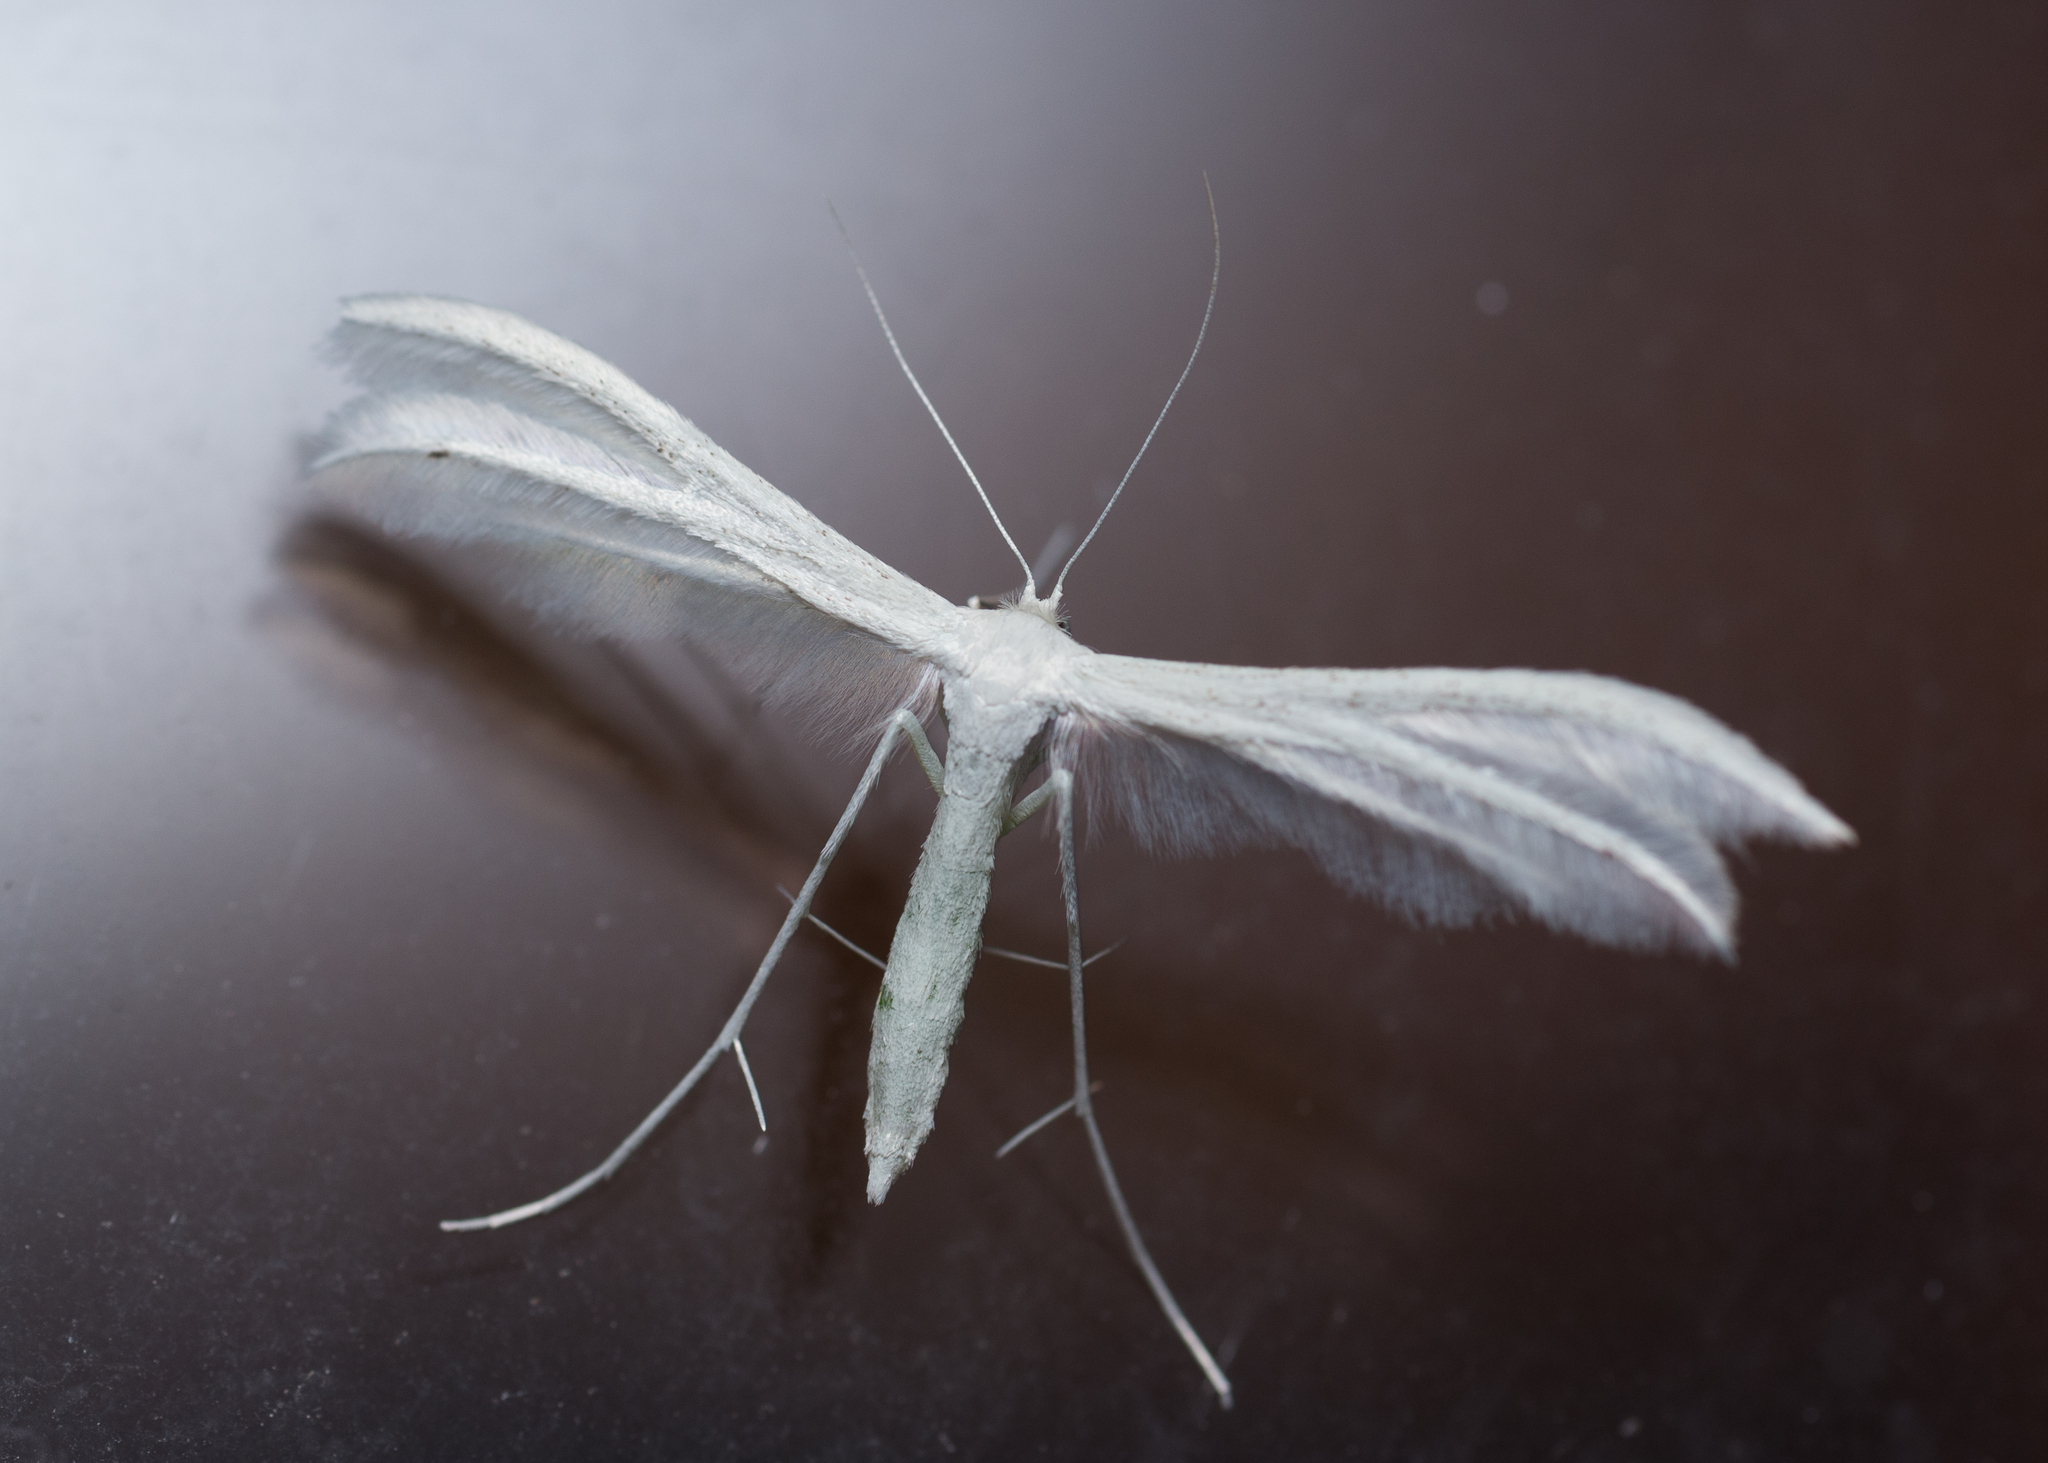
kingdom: Animalia
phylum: Arthropoda
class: Insecta
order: Lepidoptera
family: Pterophoridae
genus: Pterophorus
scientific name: Pterophorus pentadactyla
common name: White plume moth
